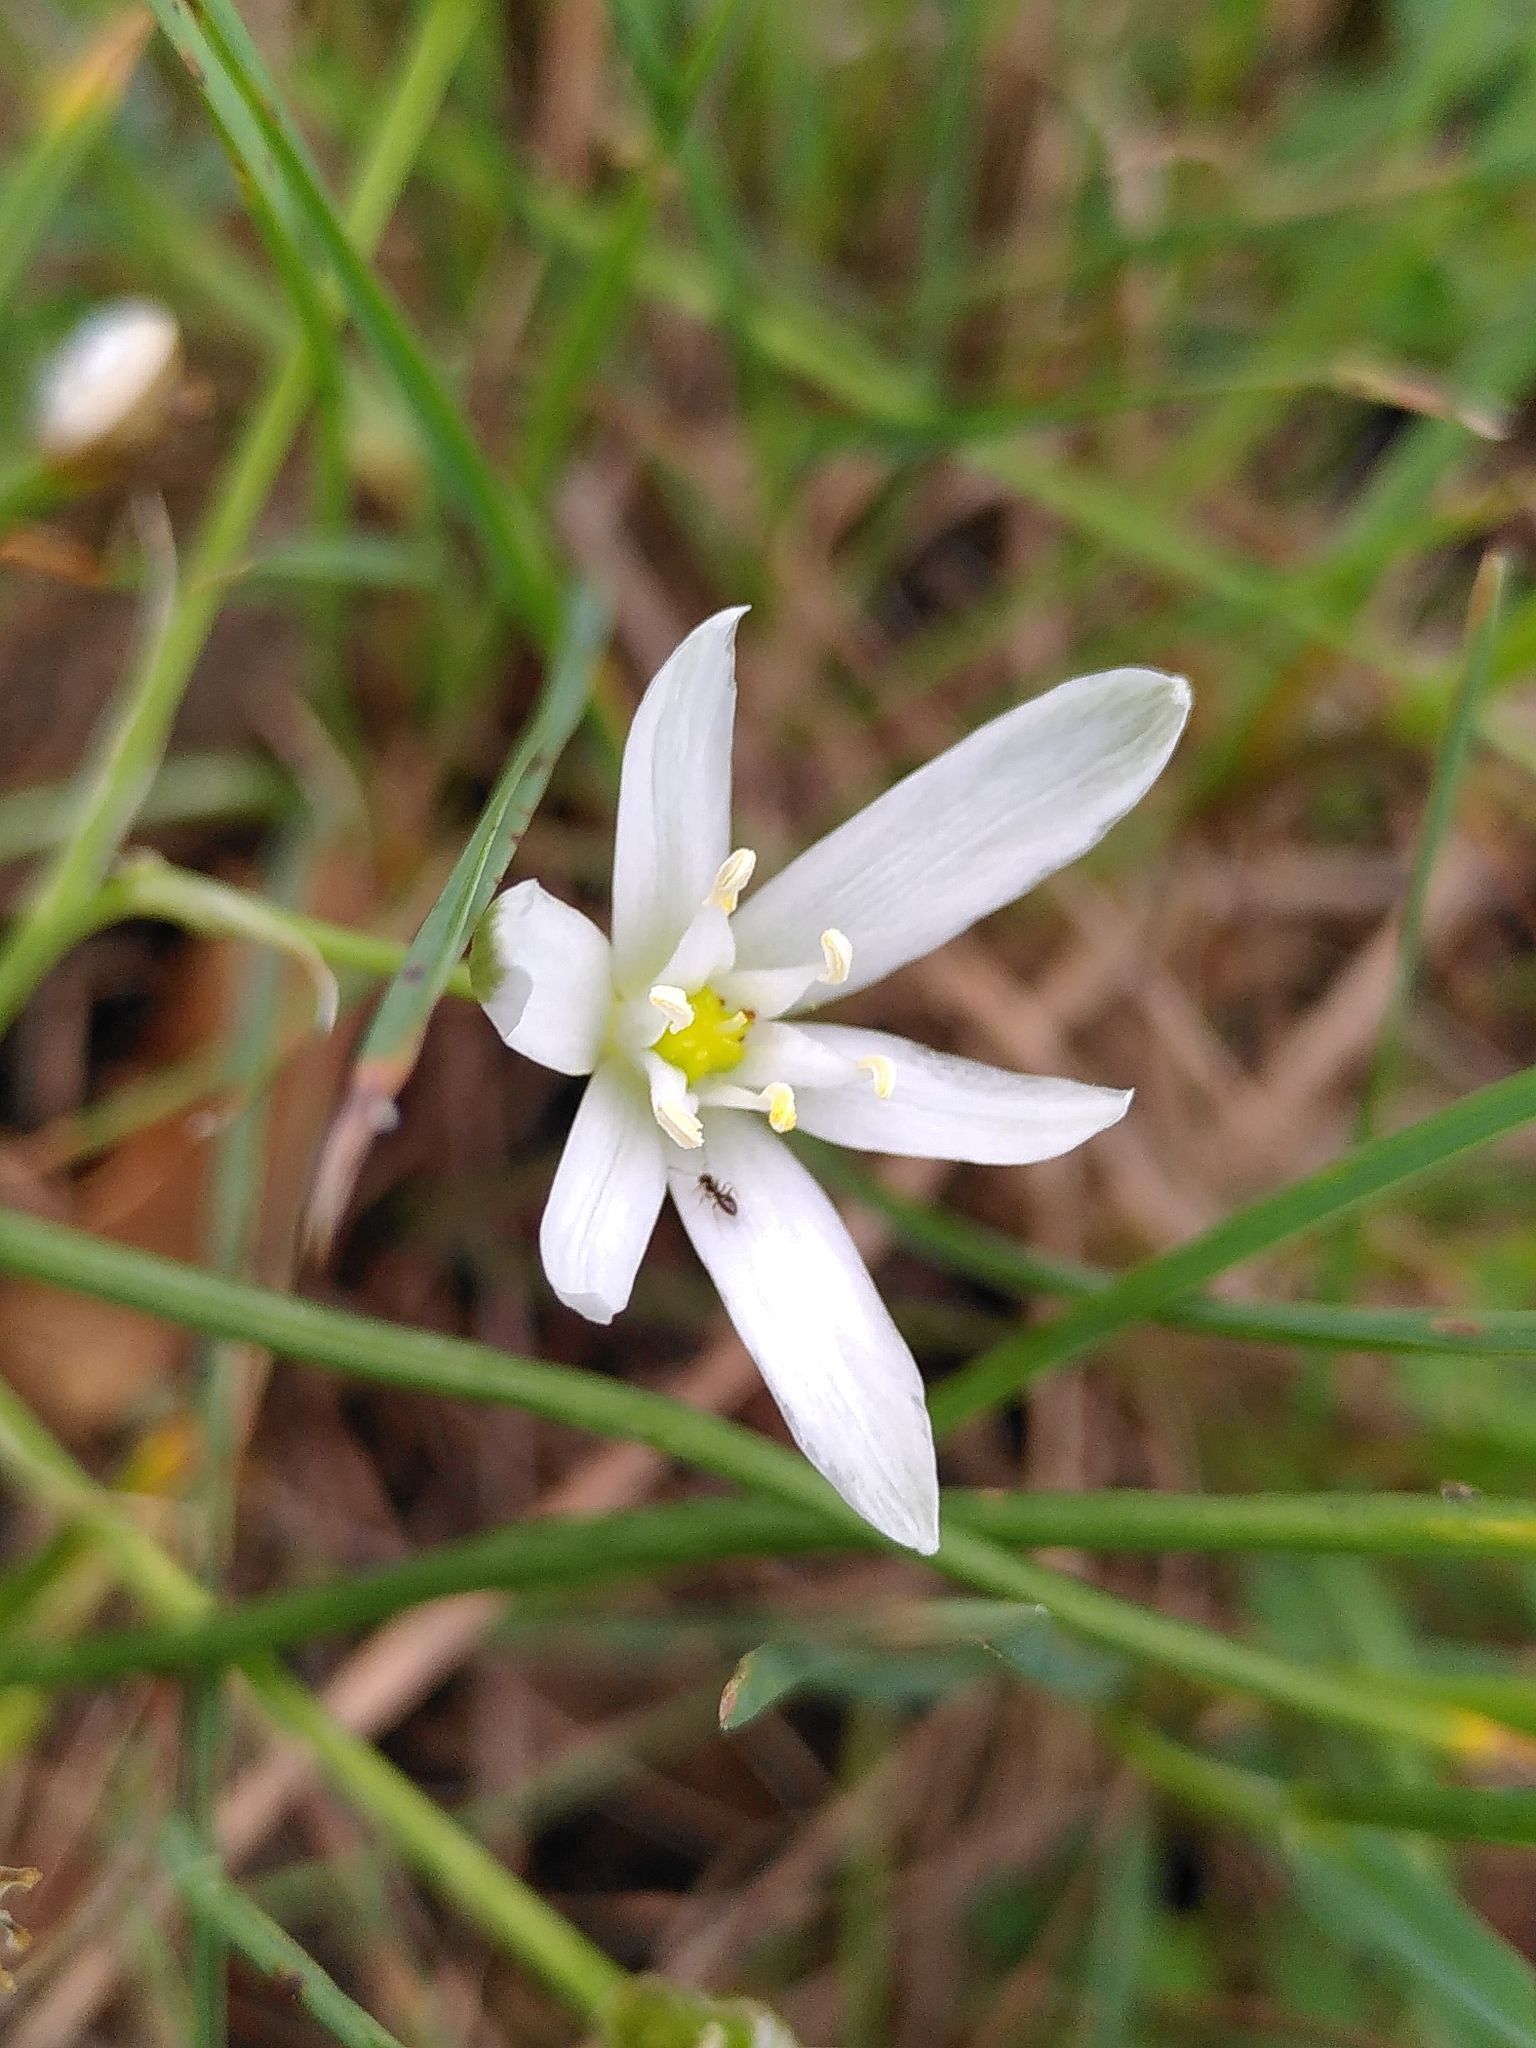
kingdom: Plantae
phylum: Tracheophyta
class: Liliopsida
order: Asparagales
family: Asparagaceae
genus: Ornithogalum
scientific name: Ornithogalum umbellatum
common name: Garden star-of-bethlehem
